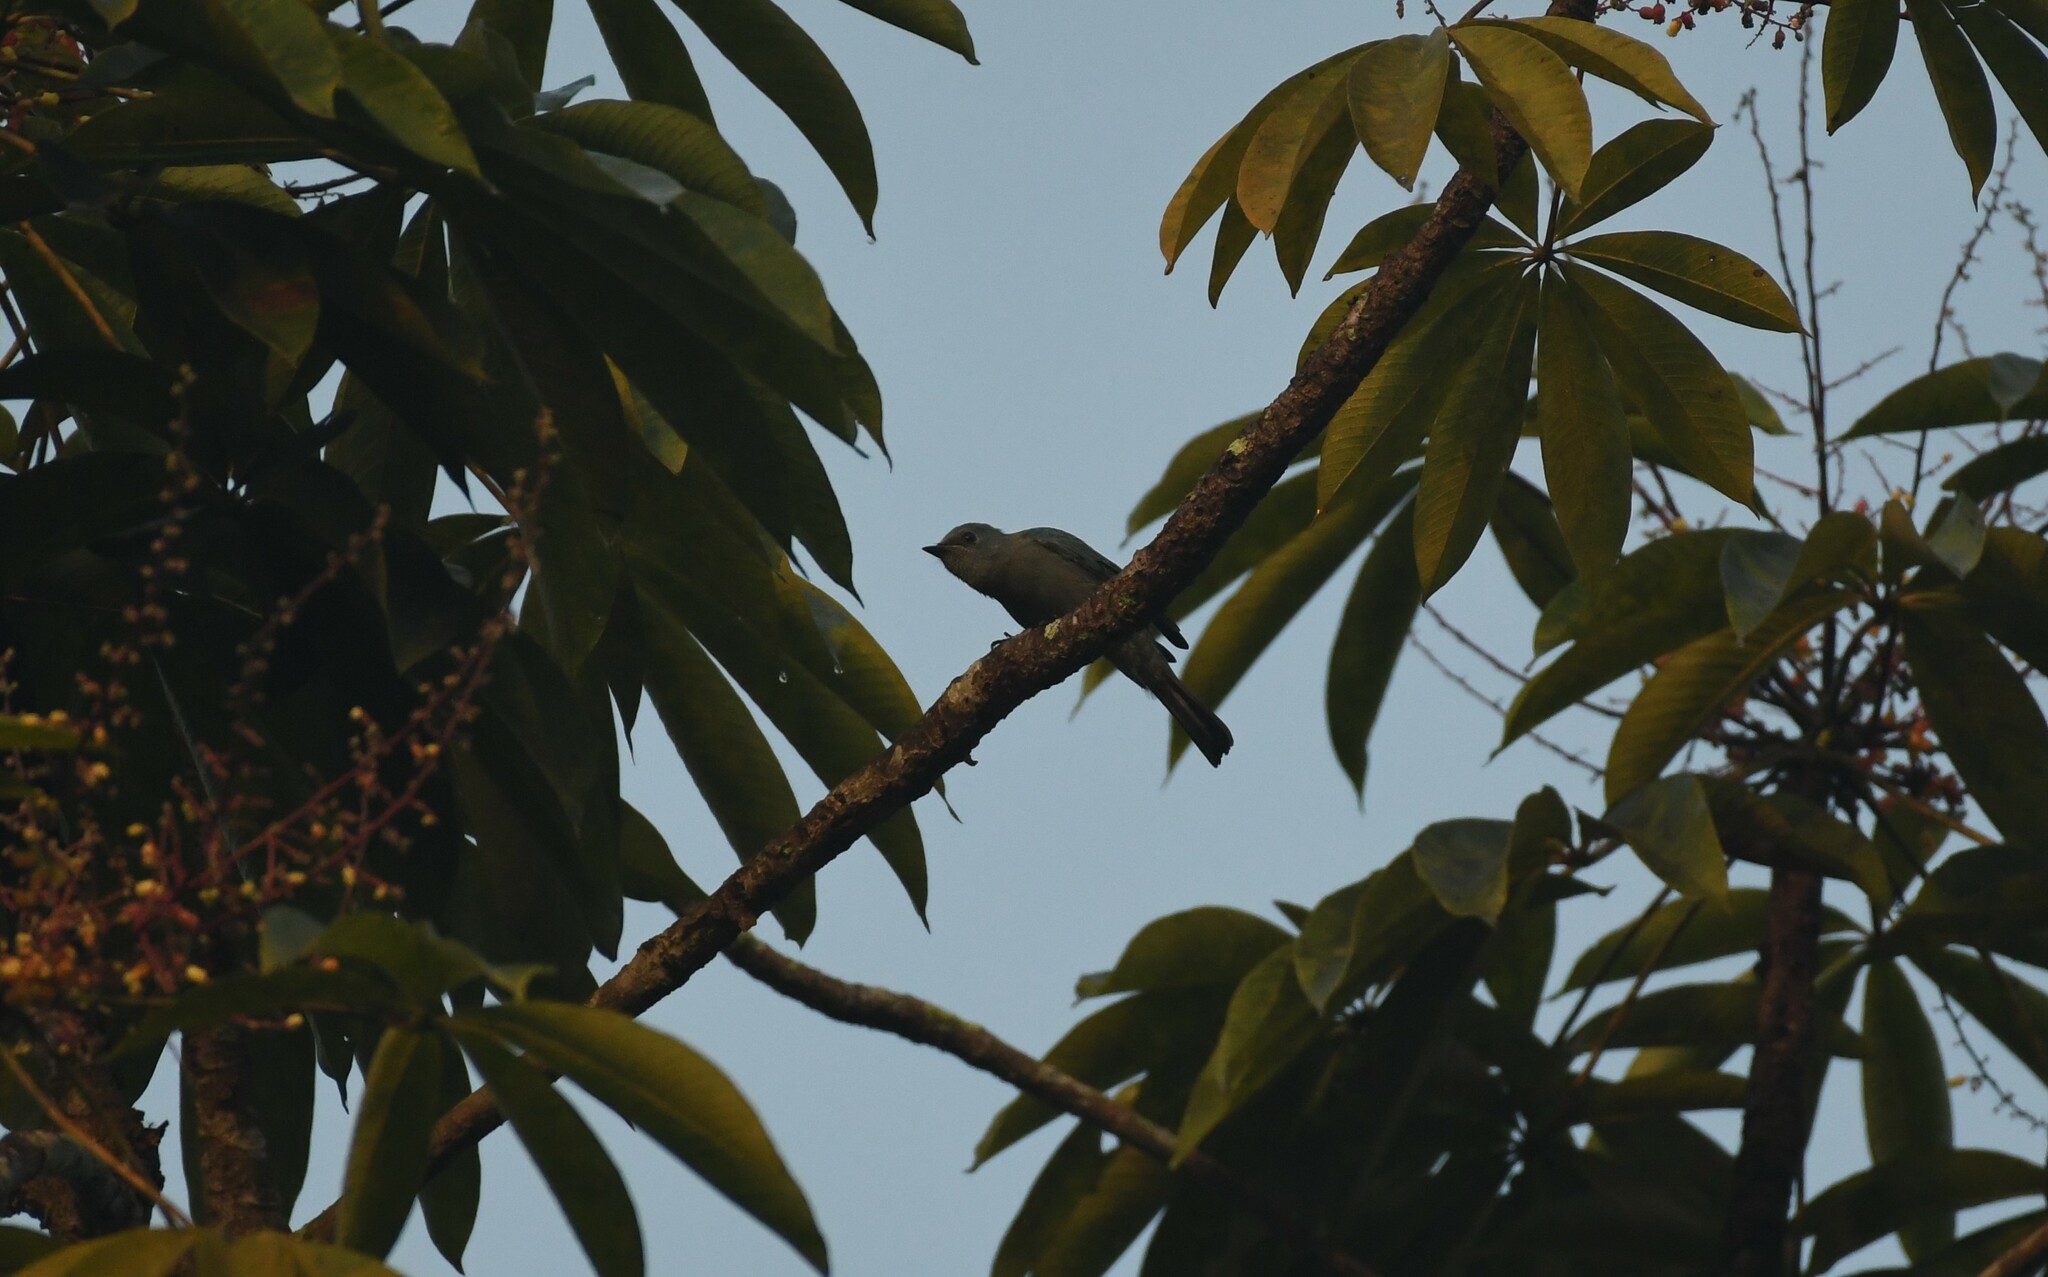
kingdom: Animalia
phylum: Chordata
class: Aves
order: Passeriformes
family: Muscicapidae
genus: Eumyias
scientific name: Eumyias thalassinus
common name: Verditer flycatcher
